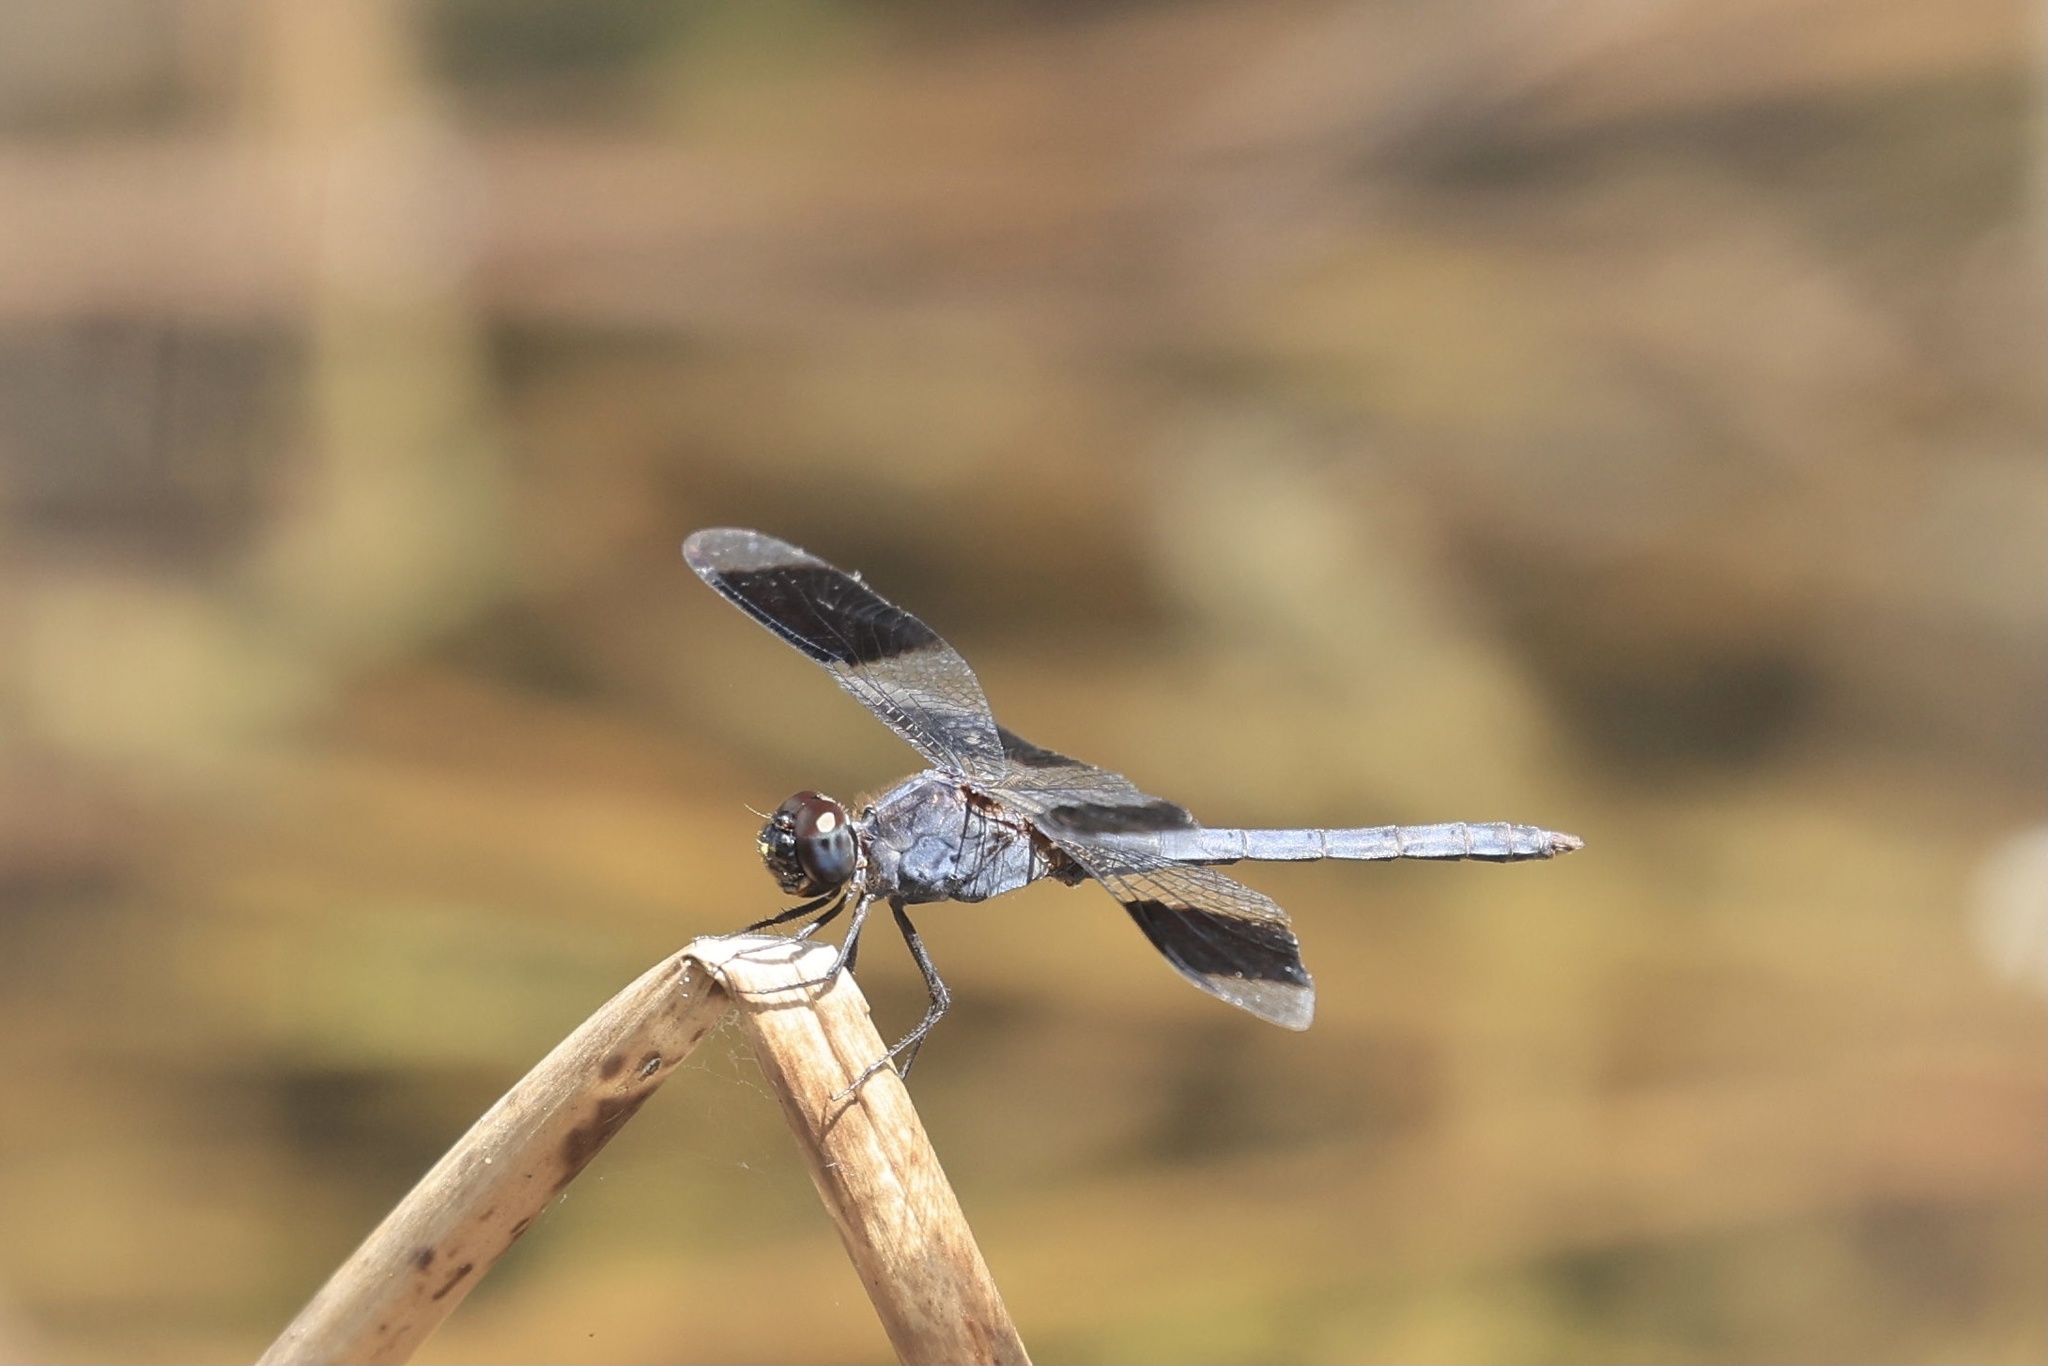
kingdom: Animalia
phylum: Arthropoda
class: Insecta
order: Odonata
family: Libellulidae
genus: Erythrodiplax
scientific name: Erythrodiplax umbrata
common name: Band-winged dragonlet
